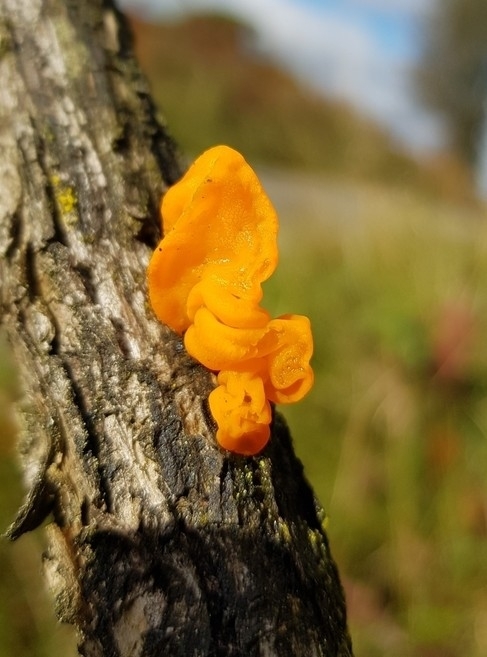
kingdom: Fungi
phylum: Basidiomycota
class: Tremellomycetes
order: Tremellales
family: Tremellaceae
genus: Tremella
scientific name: Tremella mesenterica
